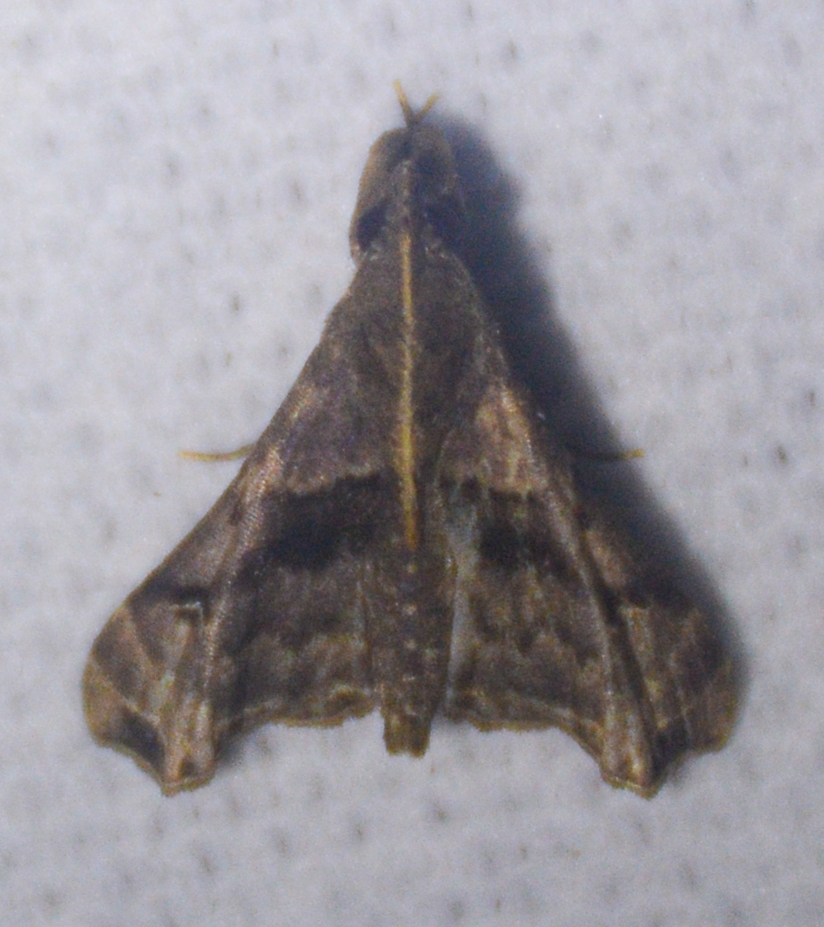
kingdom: Animalia
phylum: Arthropoda
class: Insecta
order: Lepidoptera
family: Erebidae
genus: Palthis
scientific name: Palthis angulalis
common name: Dark-spotted palthis moth
